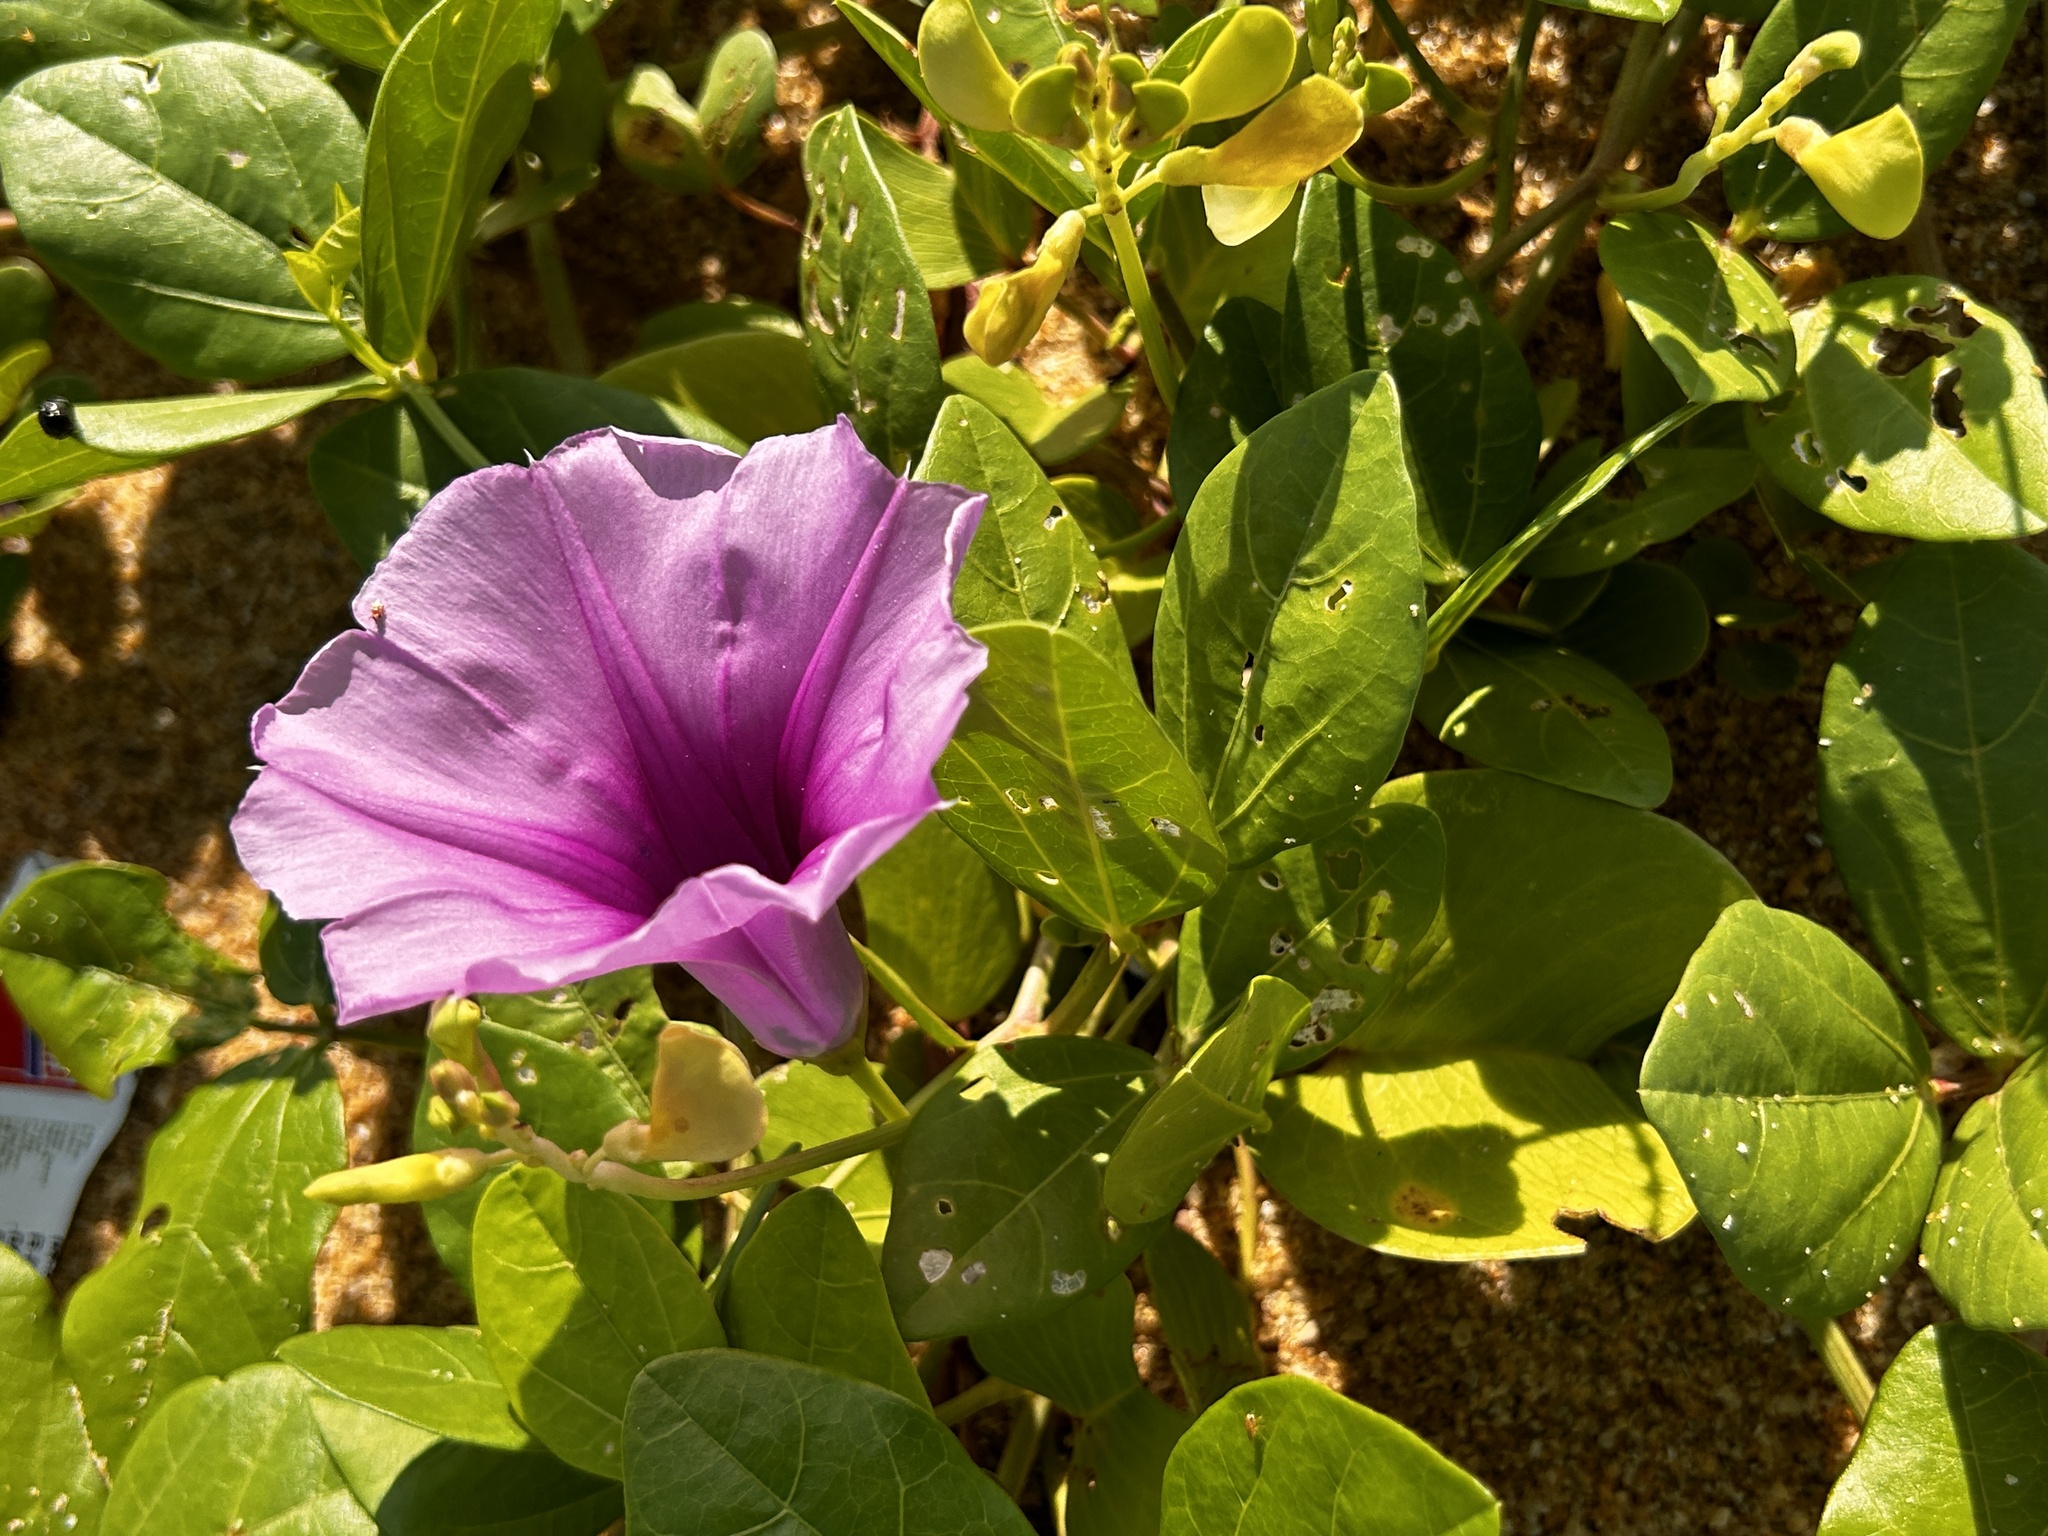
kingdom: Plantae
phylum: Tracheophyta
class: Magnoliopsida
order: Solanales
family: Convolvulaceae
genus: Ipomoea
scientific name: Ipomoea pes-caprae
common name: Beach morning glory
